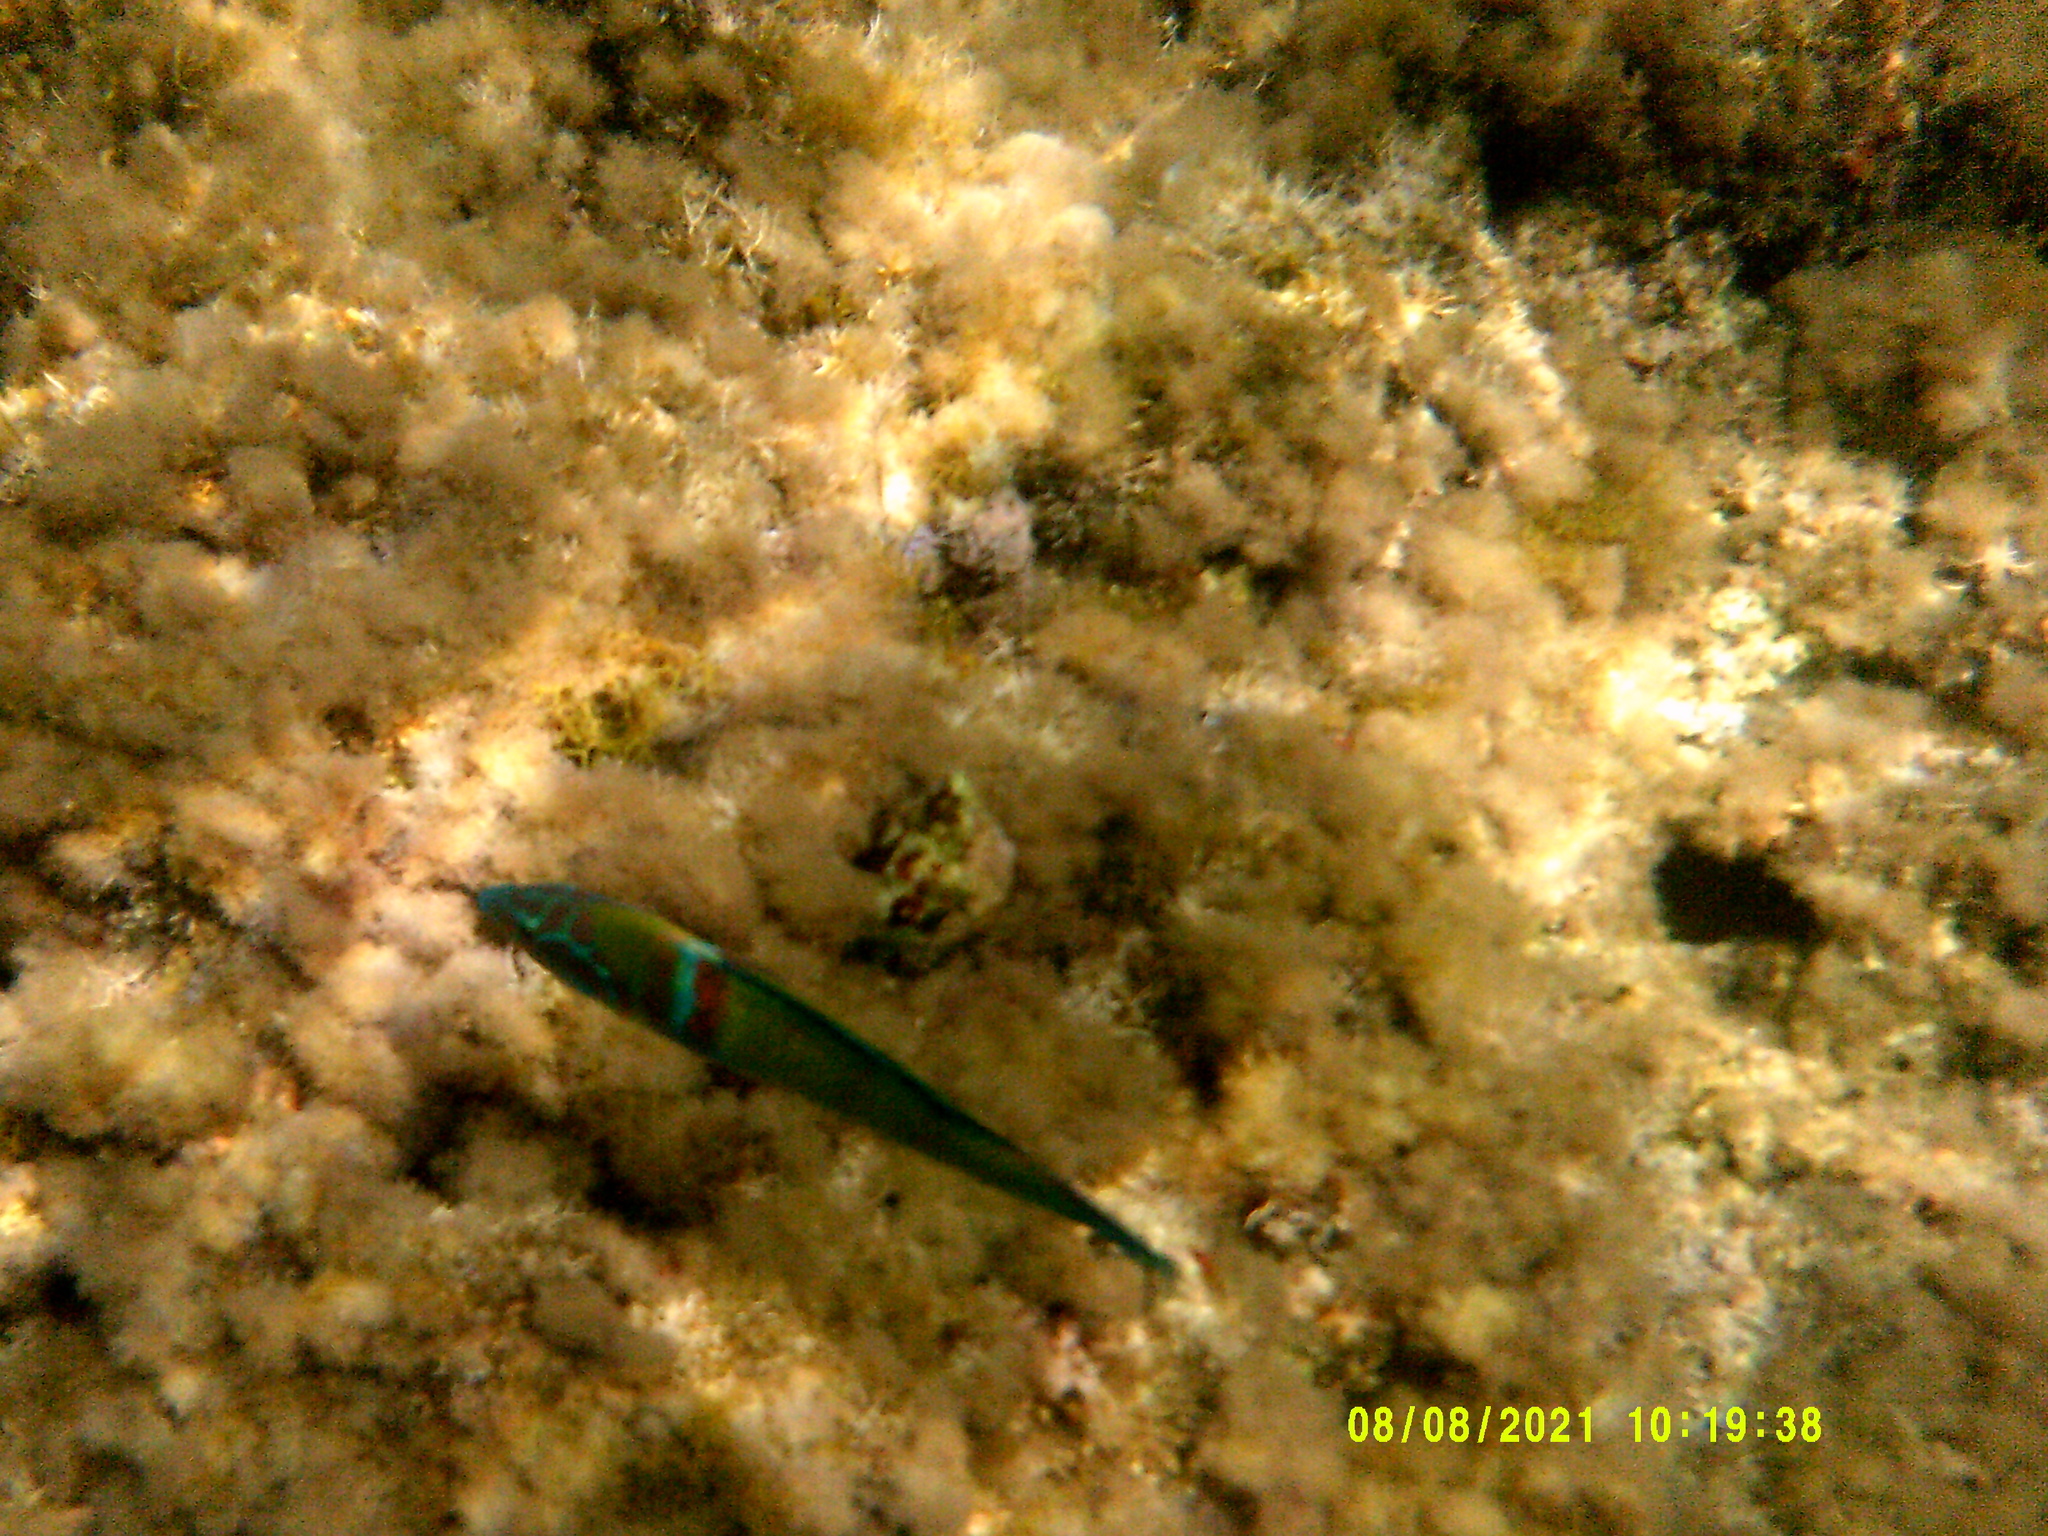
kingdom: Animalia
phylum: Chordata
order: Perciformes
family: Labridae
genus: Thalassoma
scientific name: Thalassoma pavo
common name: Ornate wrasse
